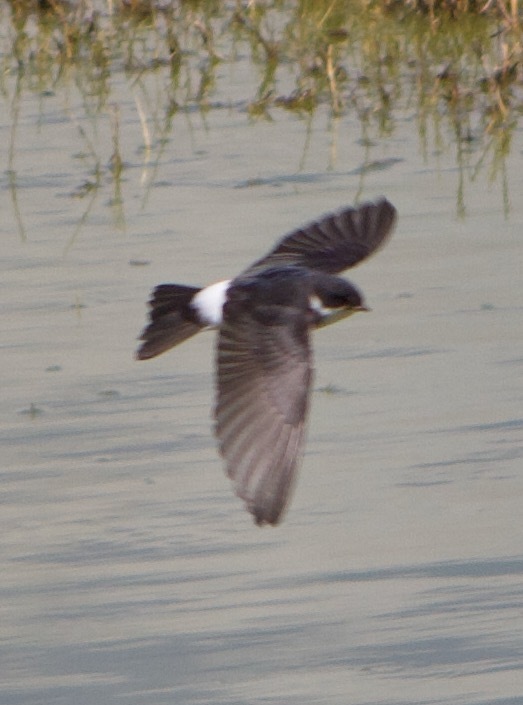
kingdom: Animalia
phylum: Chordata
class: Aves
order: Passeriformes
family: Hirundinidae
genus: Tachycineta
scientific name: Tachycineta leucopyga
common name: Chilean swallow
